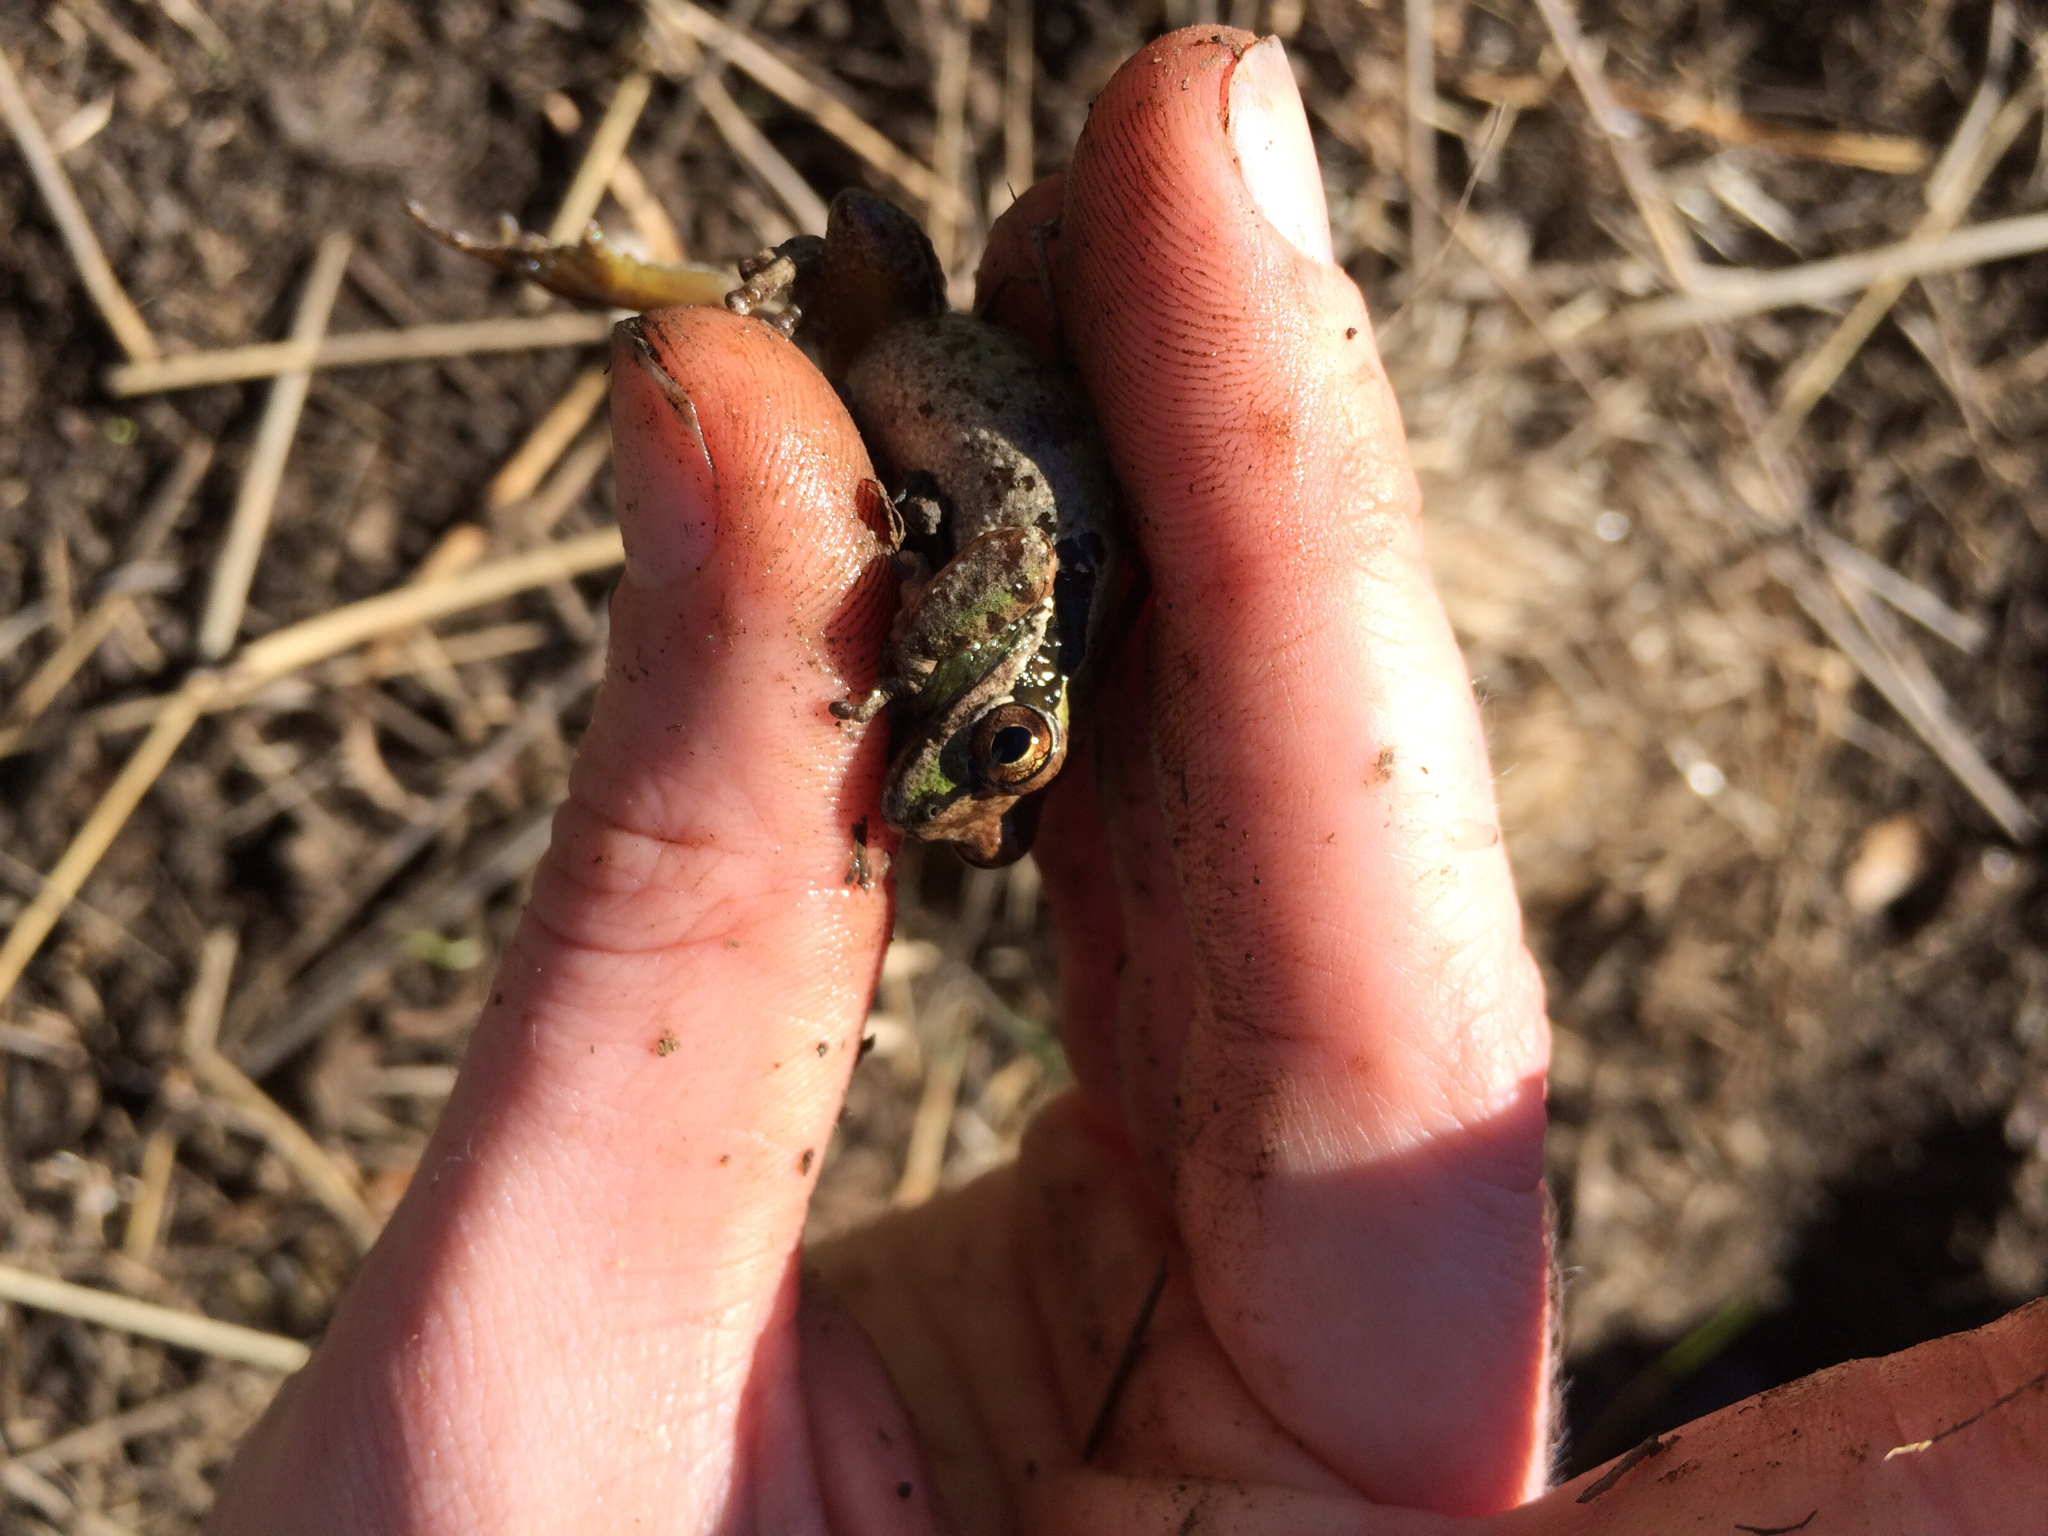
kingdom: Animalia
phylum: Chordata
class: Amphibia
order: Anura
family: Hylidae
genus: Pseudacris
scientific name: Pseudacris regilla
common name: Pacific chorus frog
